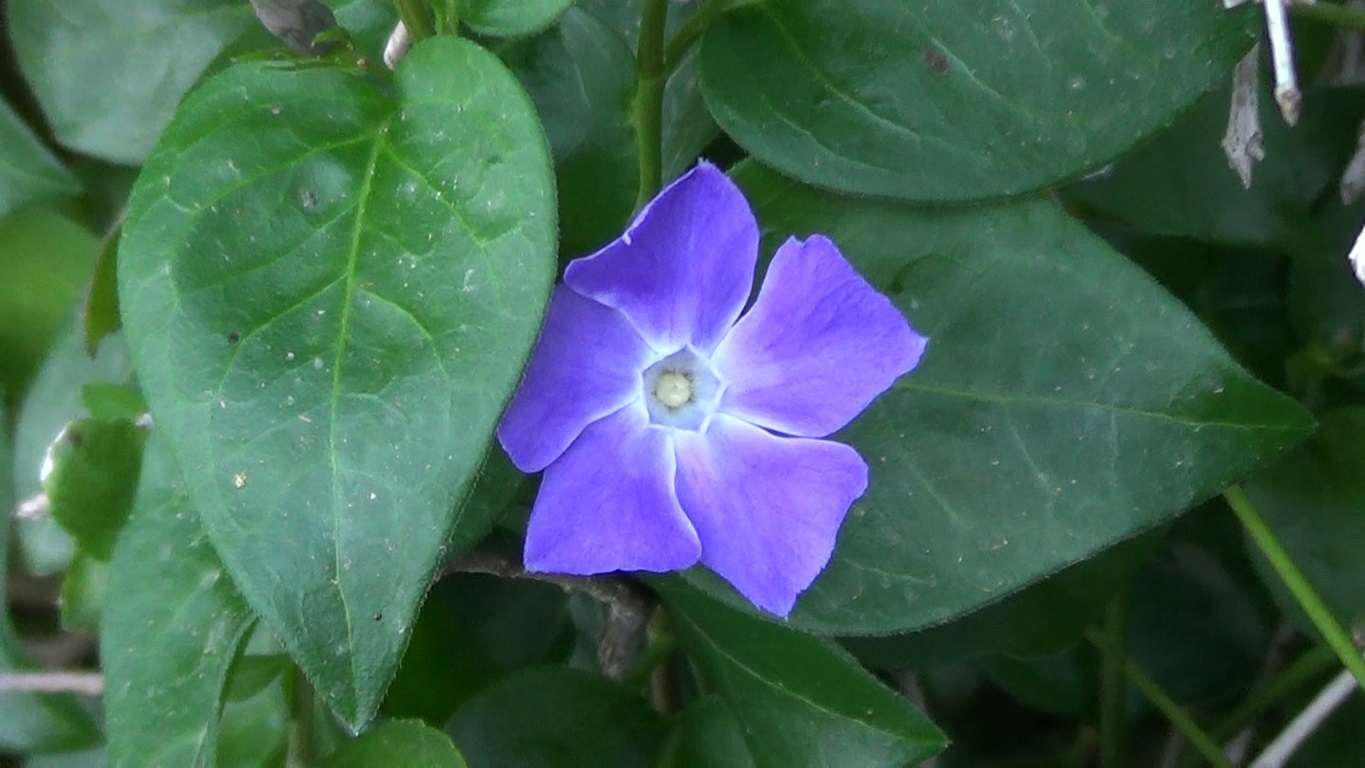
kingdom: Plantae
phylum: Tracheophyta
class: Magnoliopsida
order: Gentianales
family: Apocynaceae
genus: Vinca
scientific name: Vinca major
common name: Greater periwinkle
